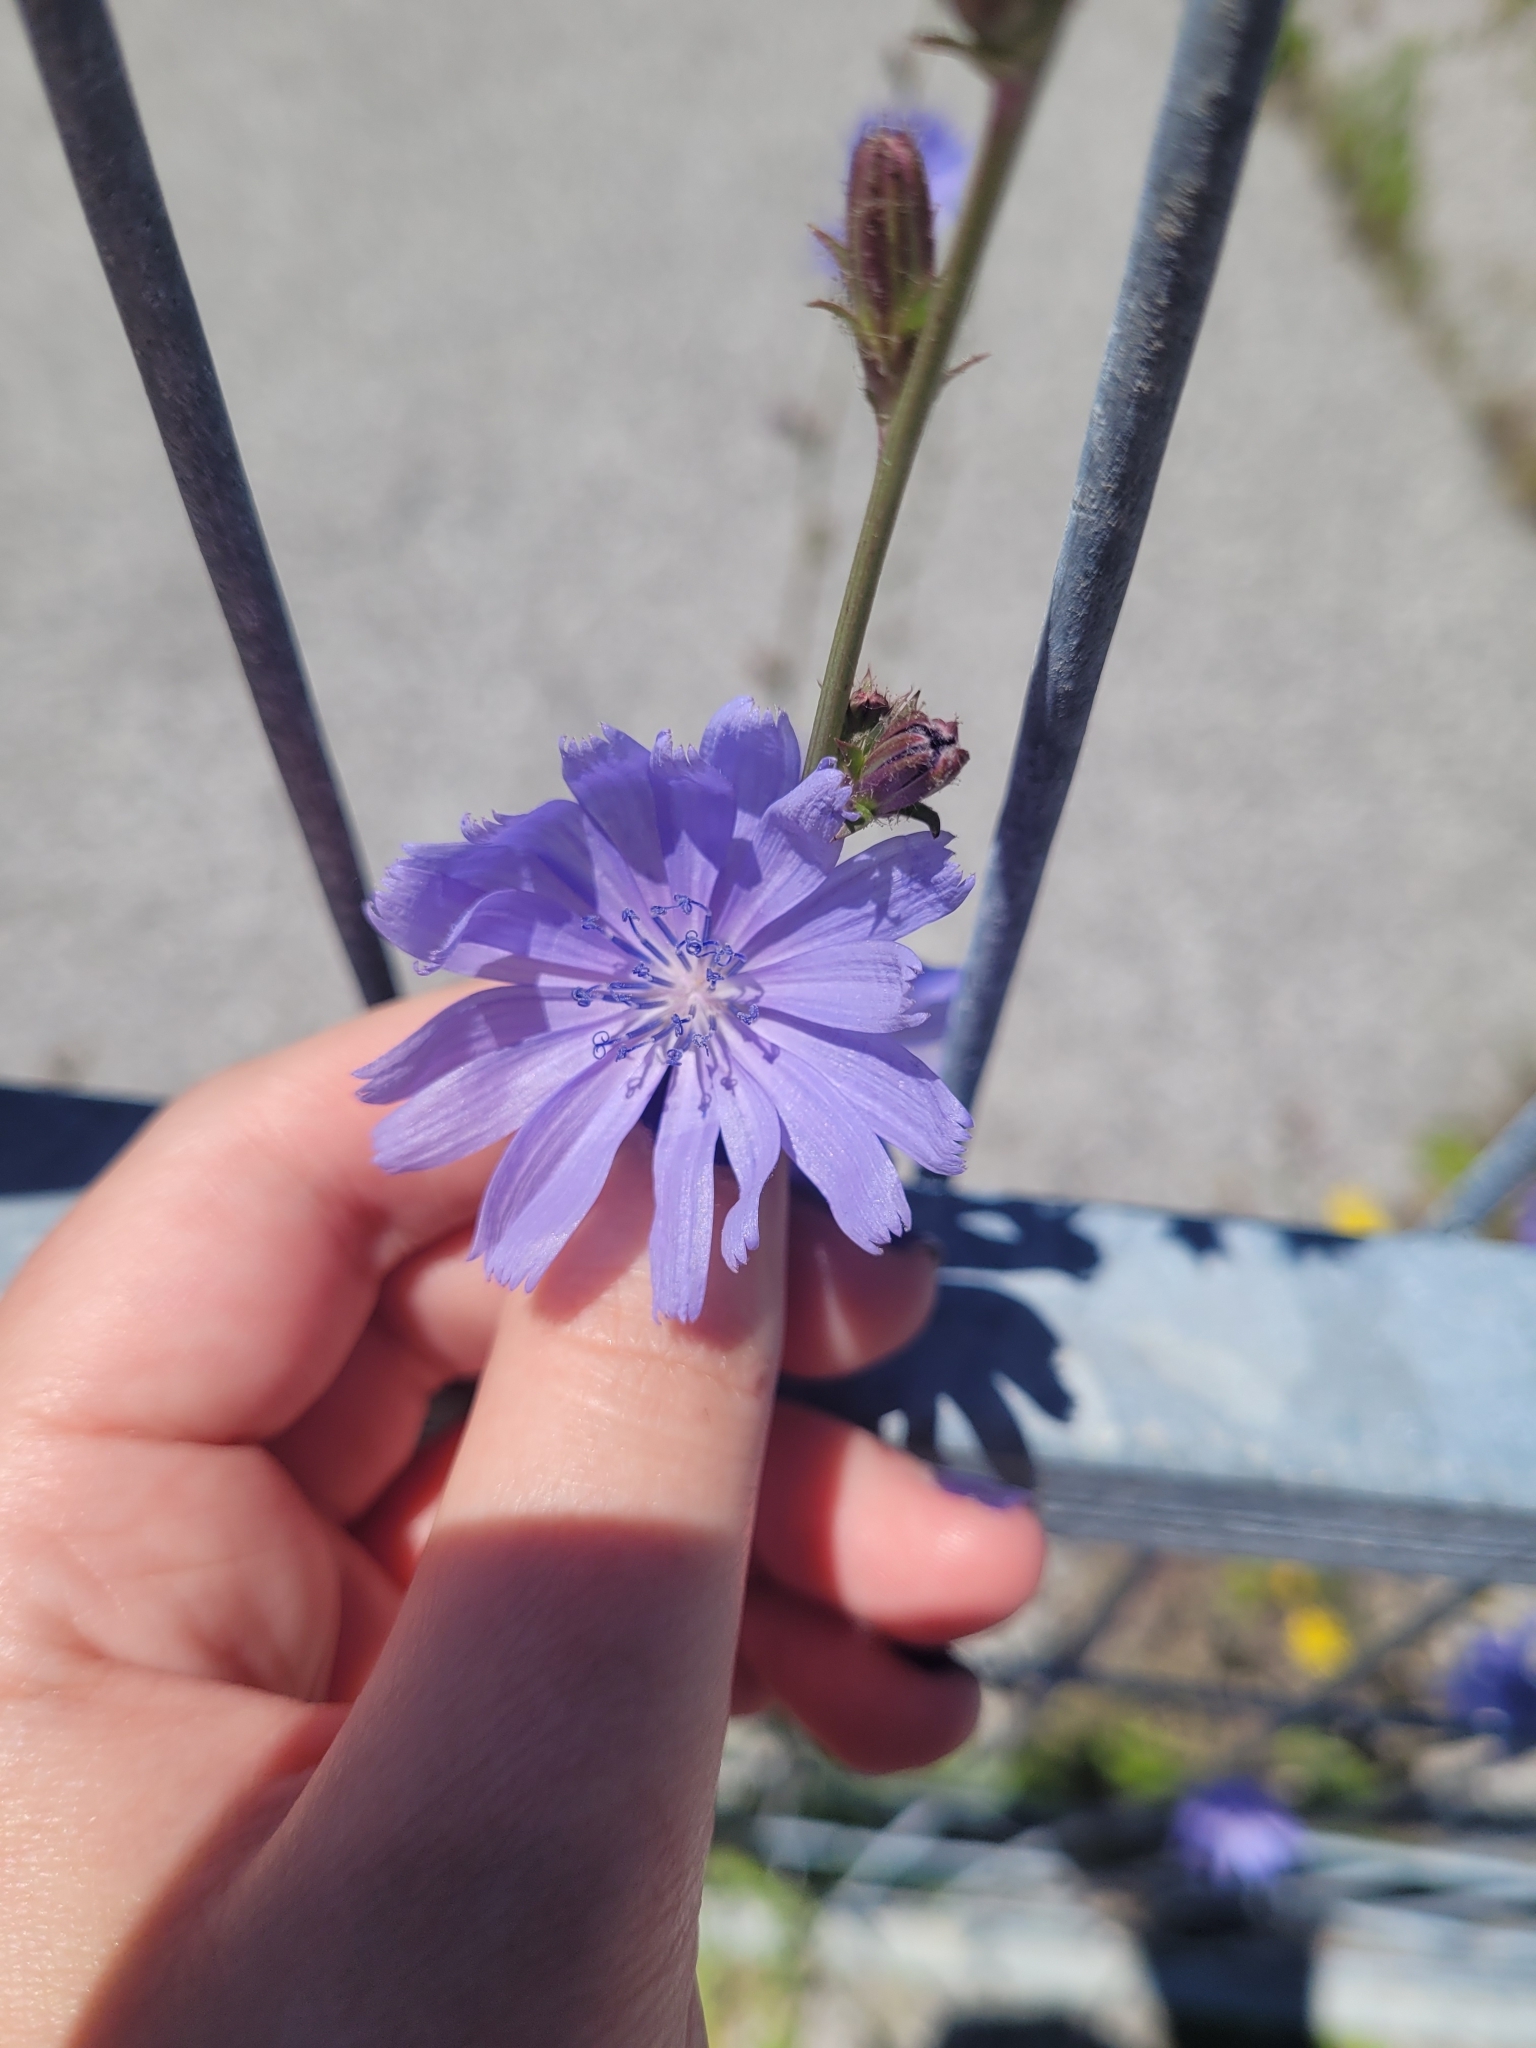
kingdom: Plantae
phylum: Tracheophyta
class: Magnoliopsida
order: Asterales
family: Asteraceae
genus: Cichorium
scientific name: Cichorium intybus
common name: Chicory
